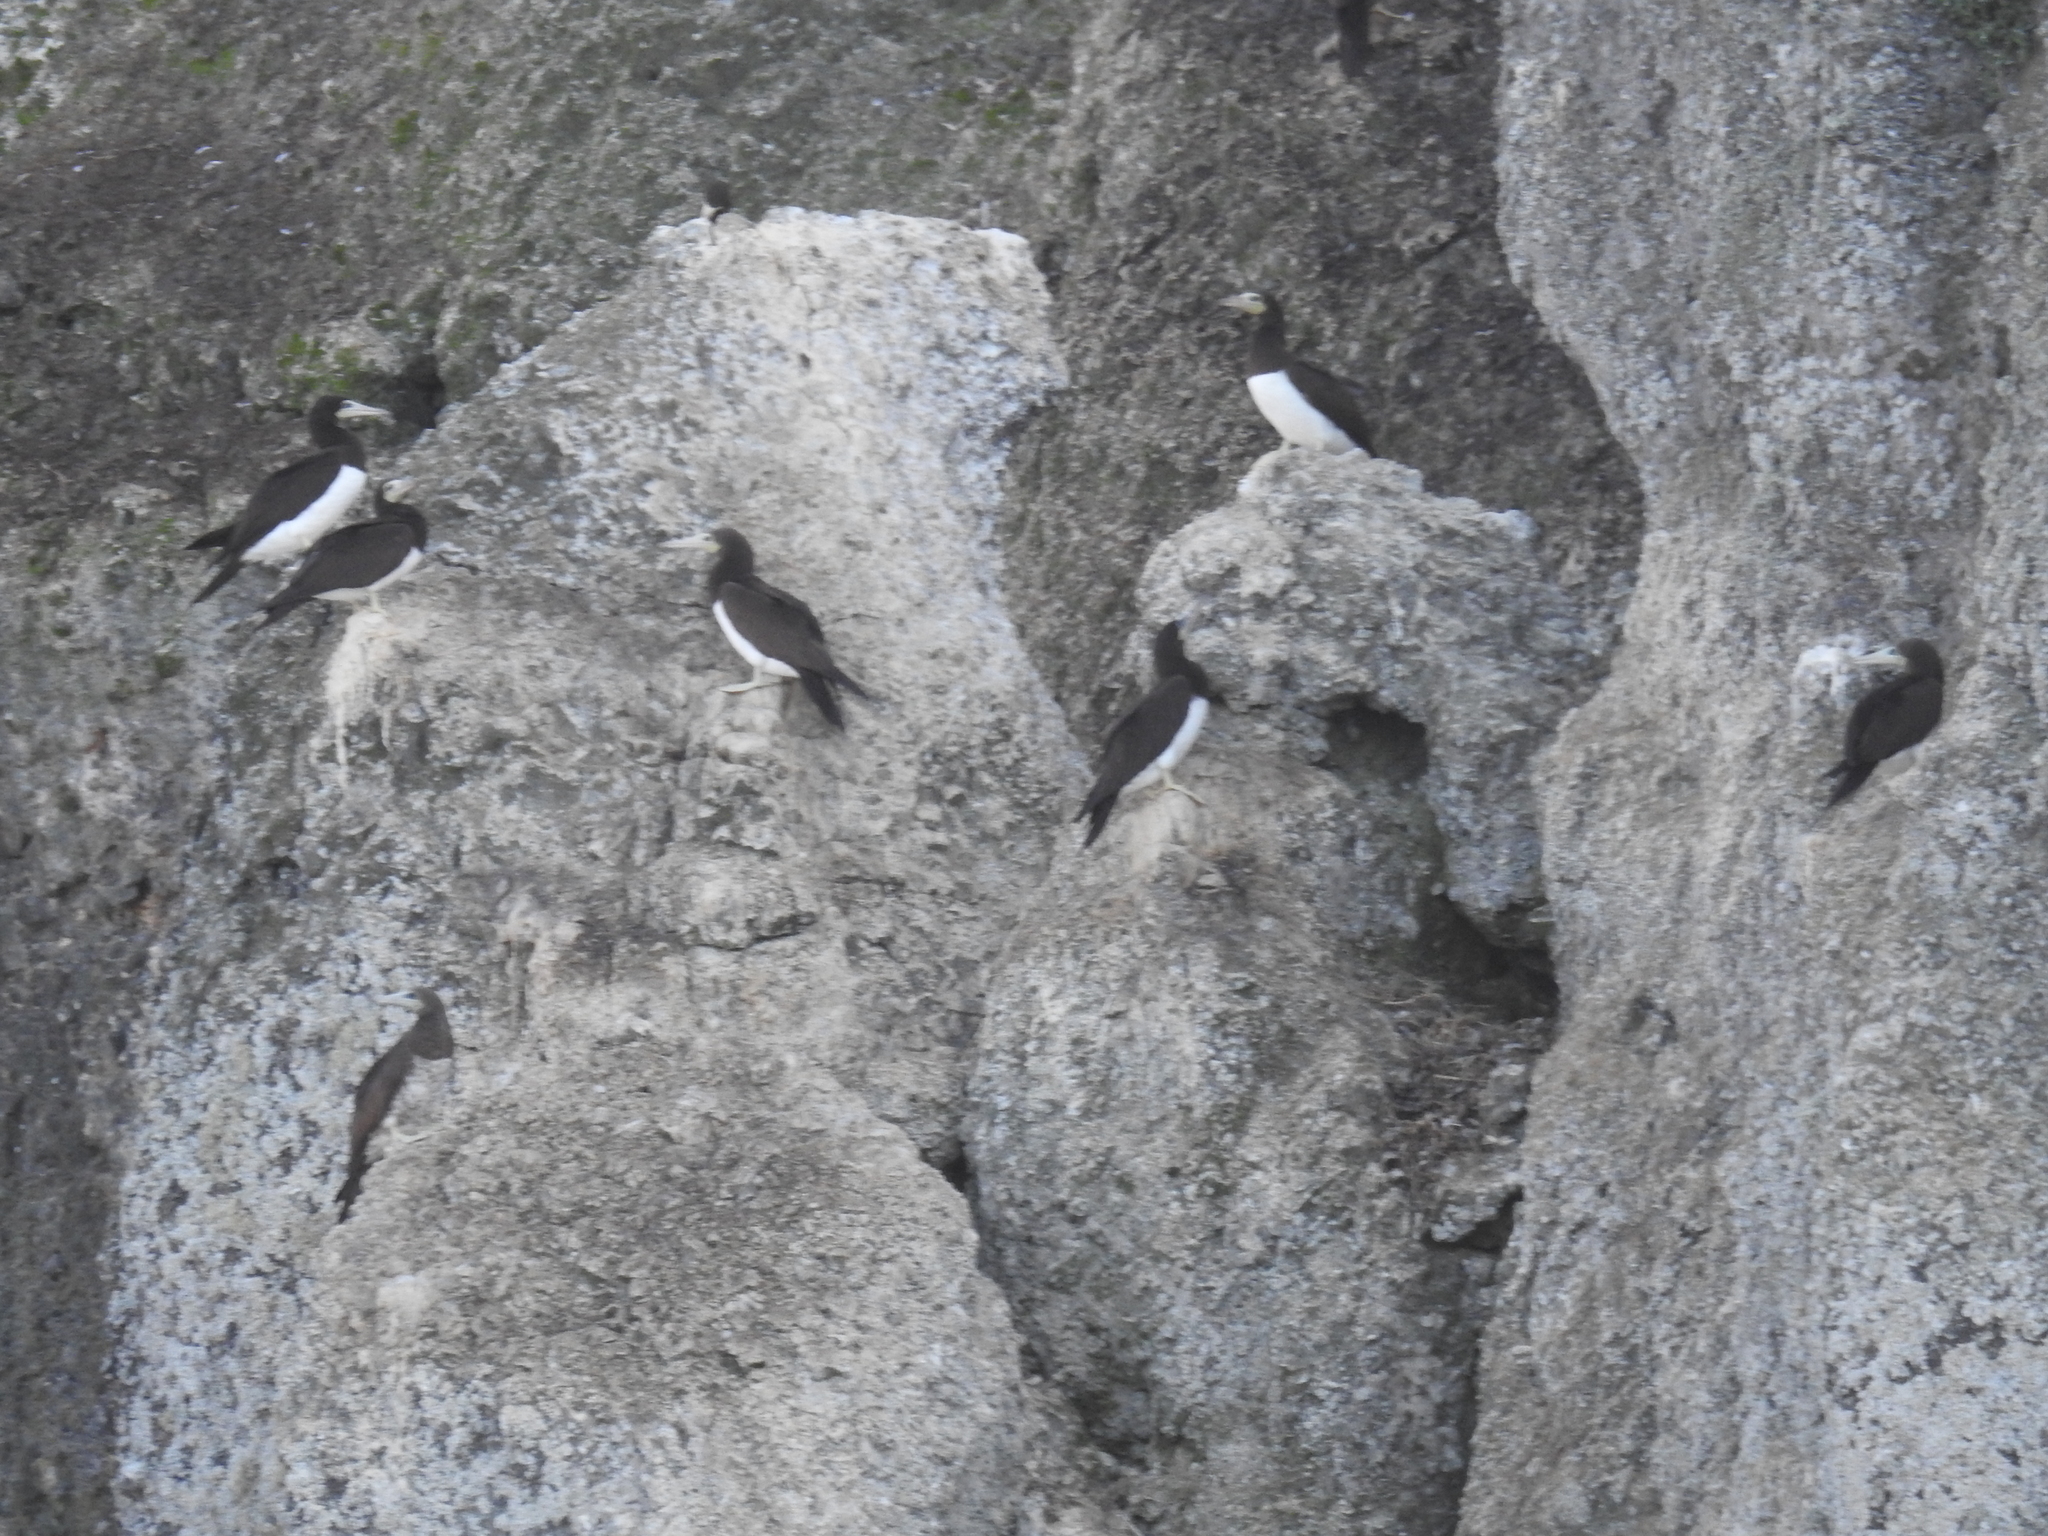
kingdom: Animalia
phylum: Chordata
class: Aves
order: Suliformes
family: Sulidae
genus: Sula
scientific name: Sula leucogaster
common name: Brown booby
